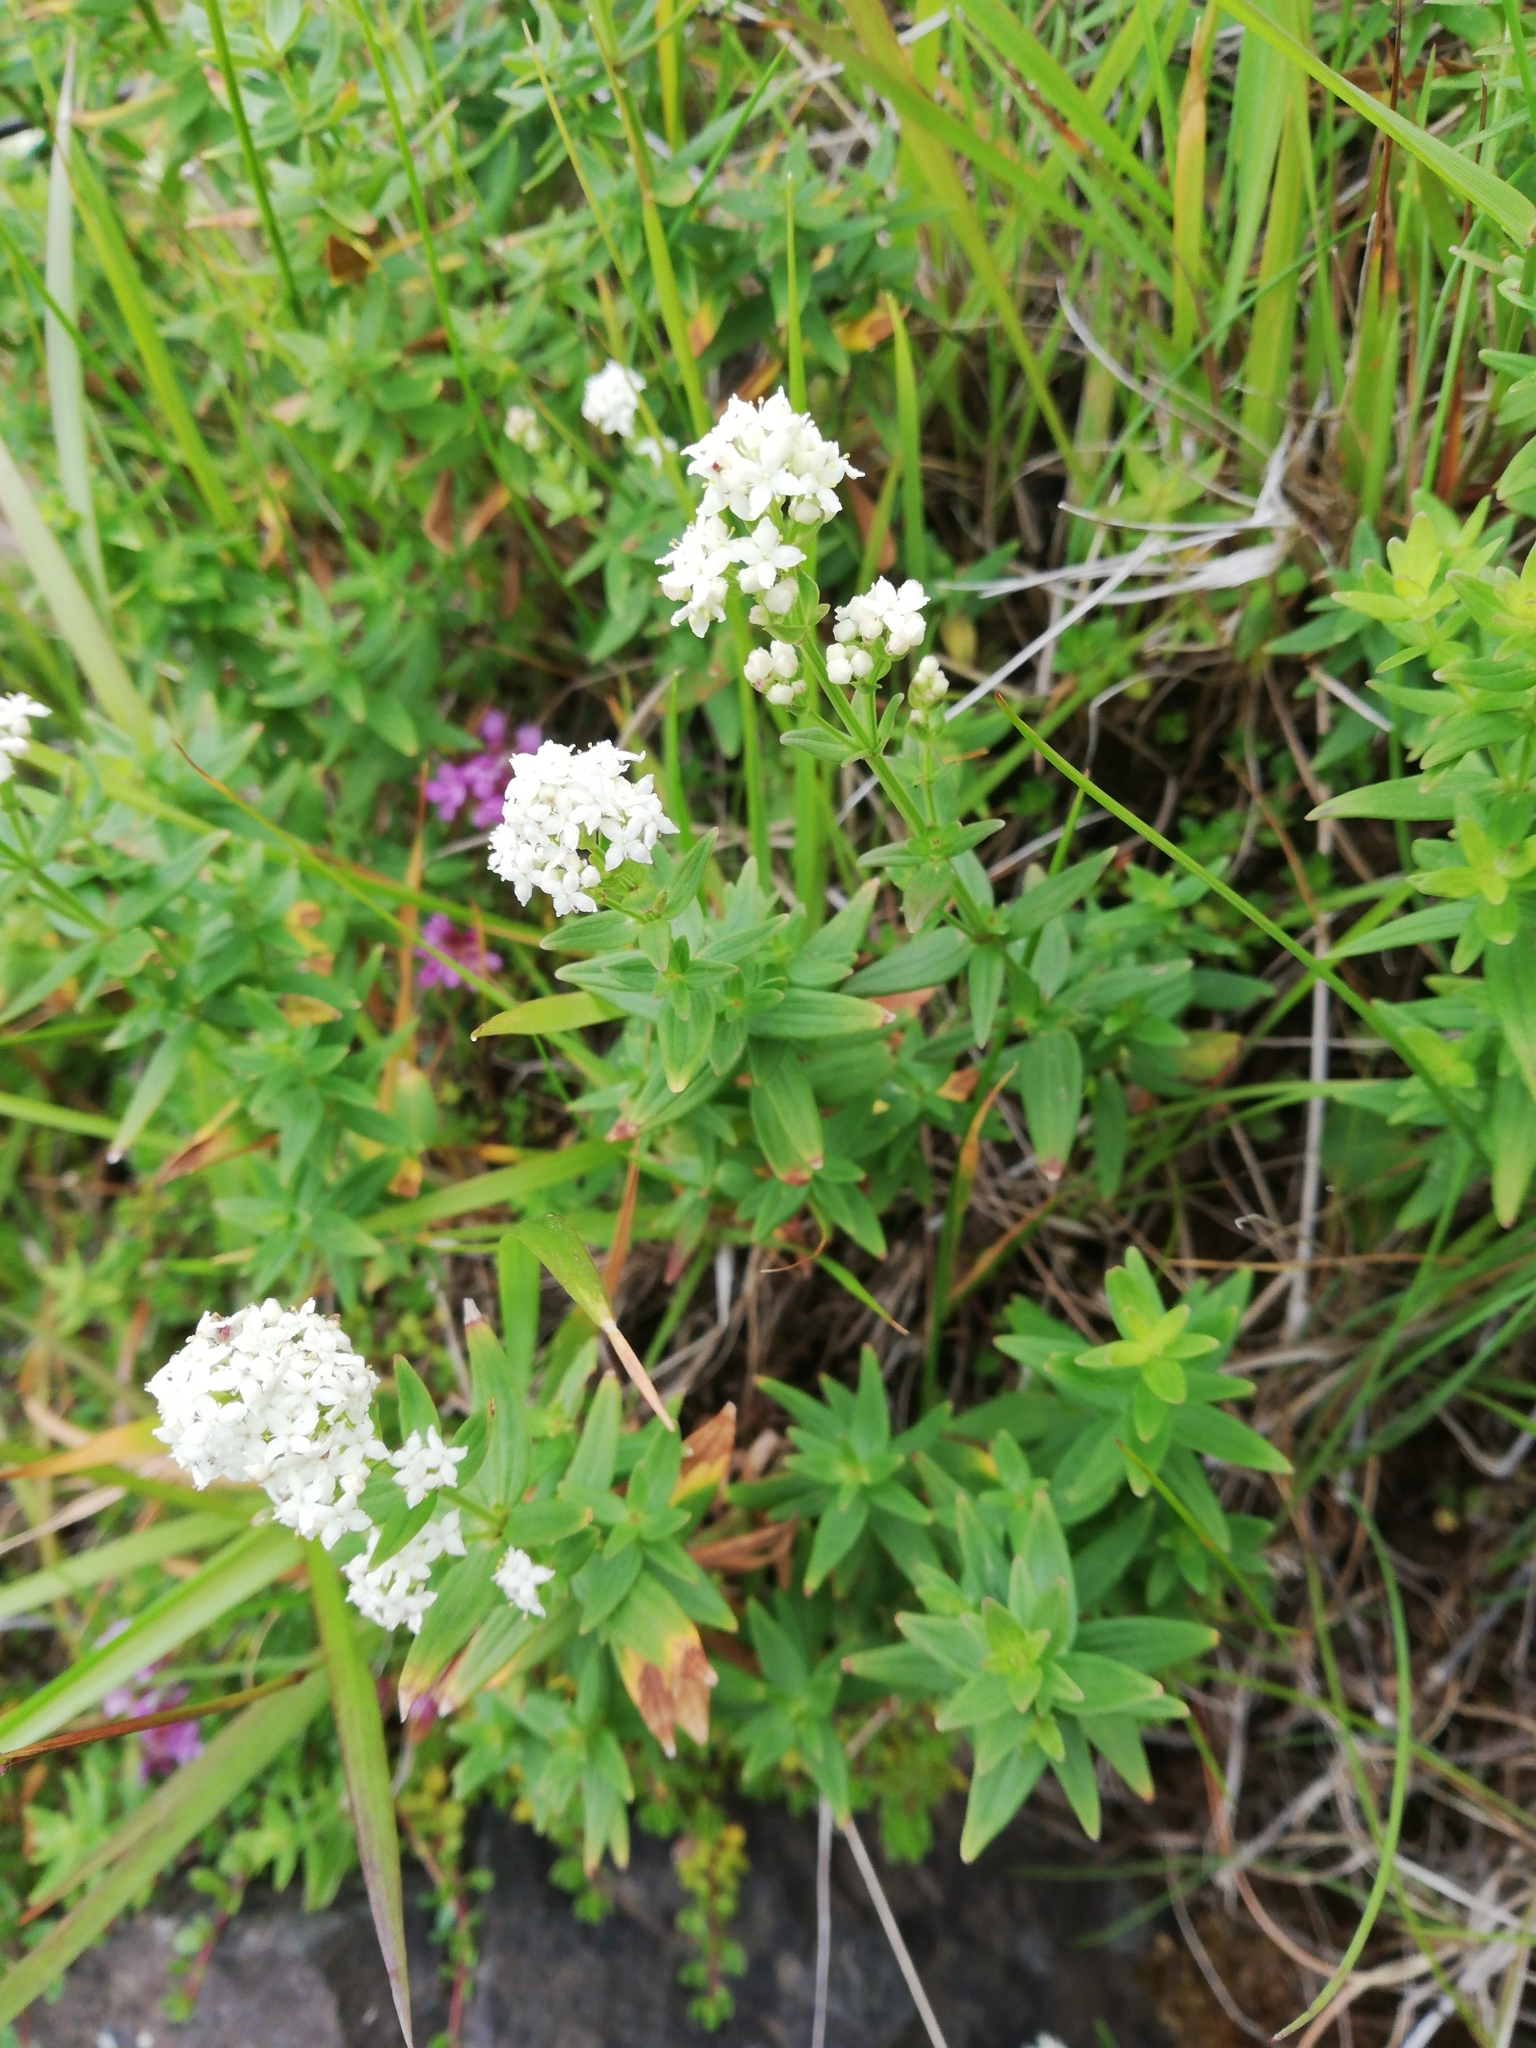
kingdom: Plantae
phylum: Tracheophyta
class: Magnoliopsida
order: Gentianales
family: Rubiaceae
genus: Galium
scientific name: Galium boreale
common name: Northern bedstraw
